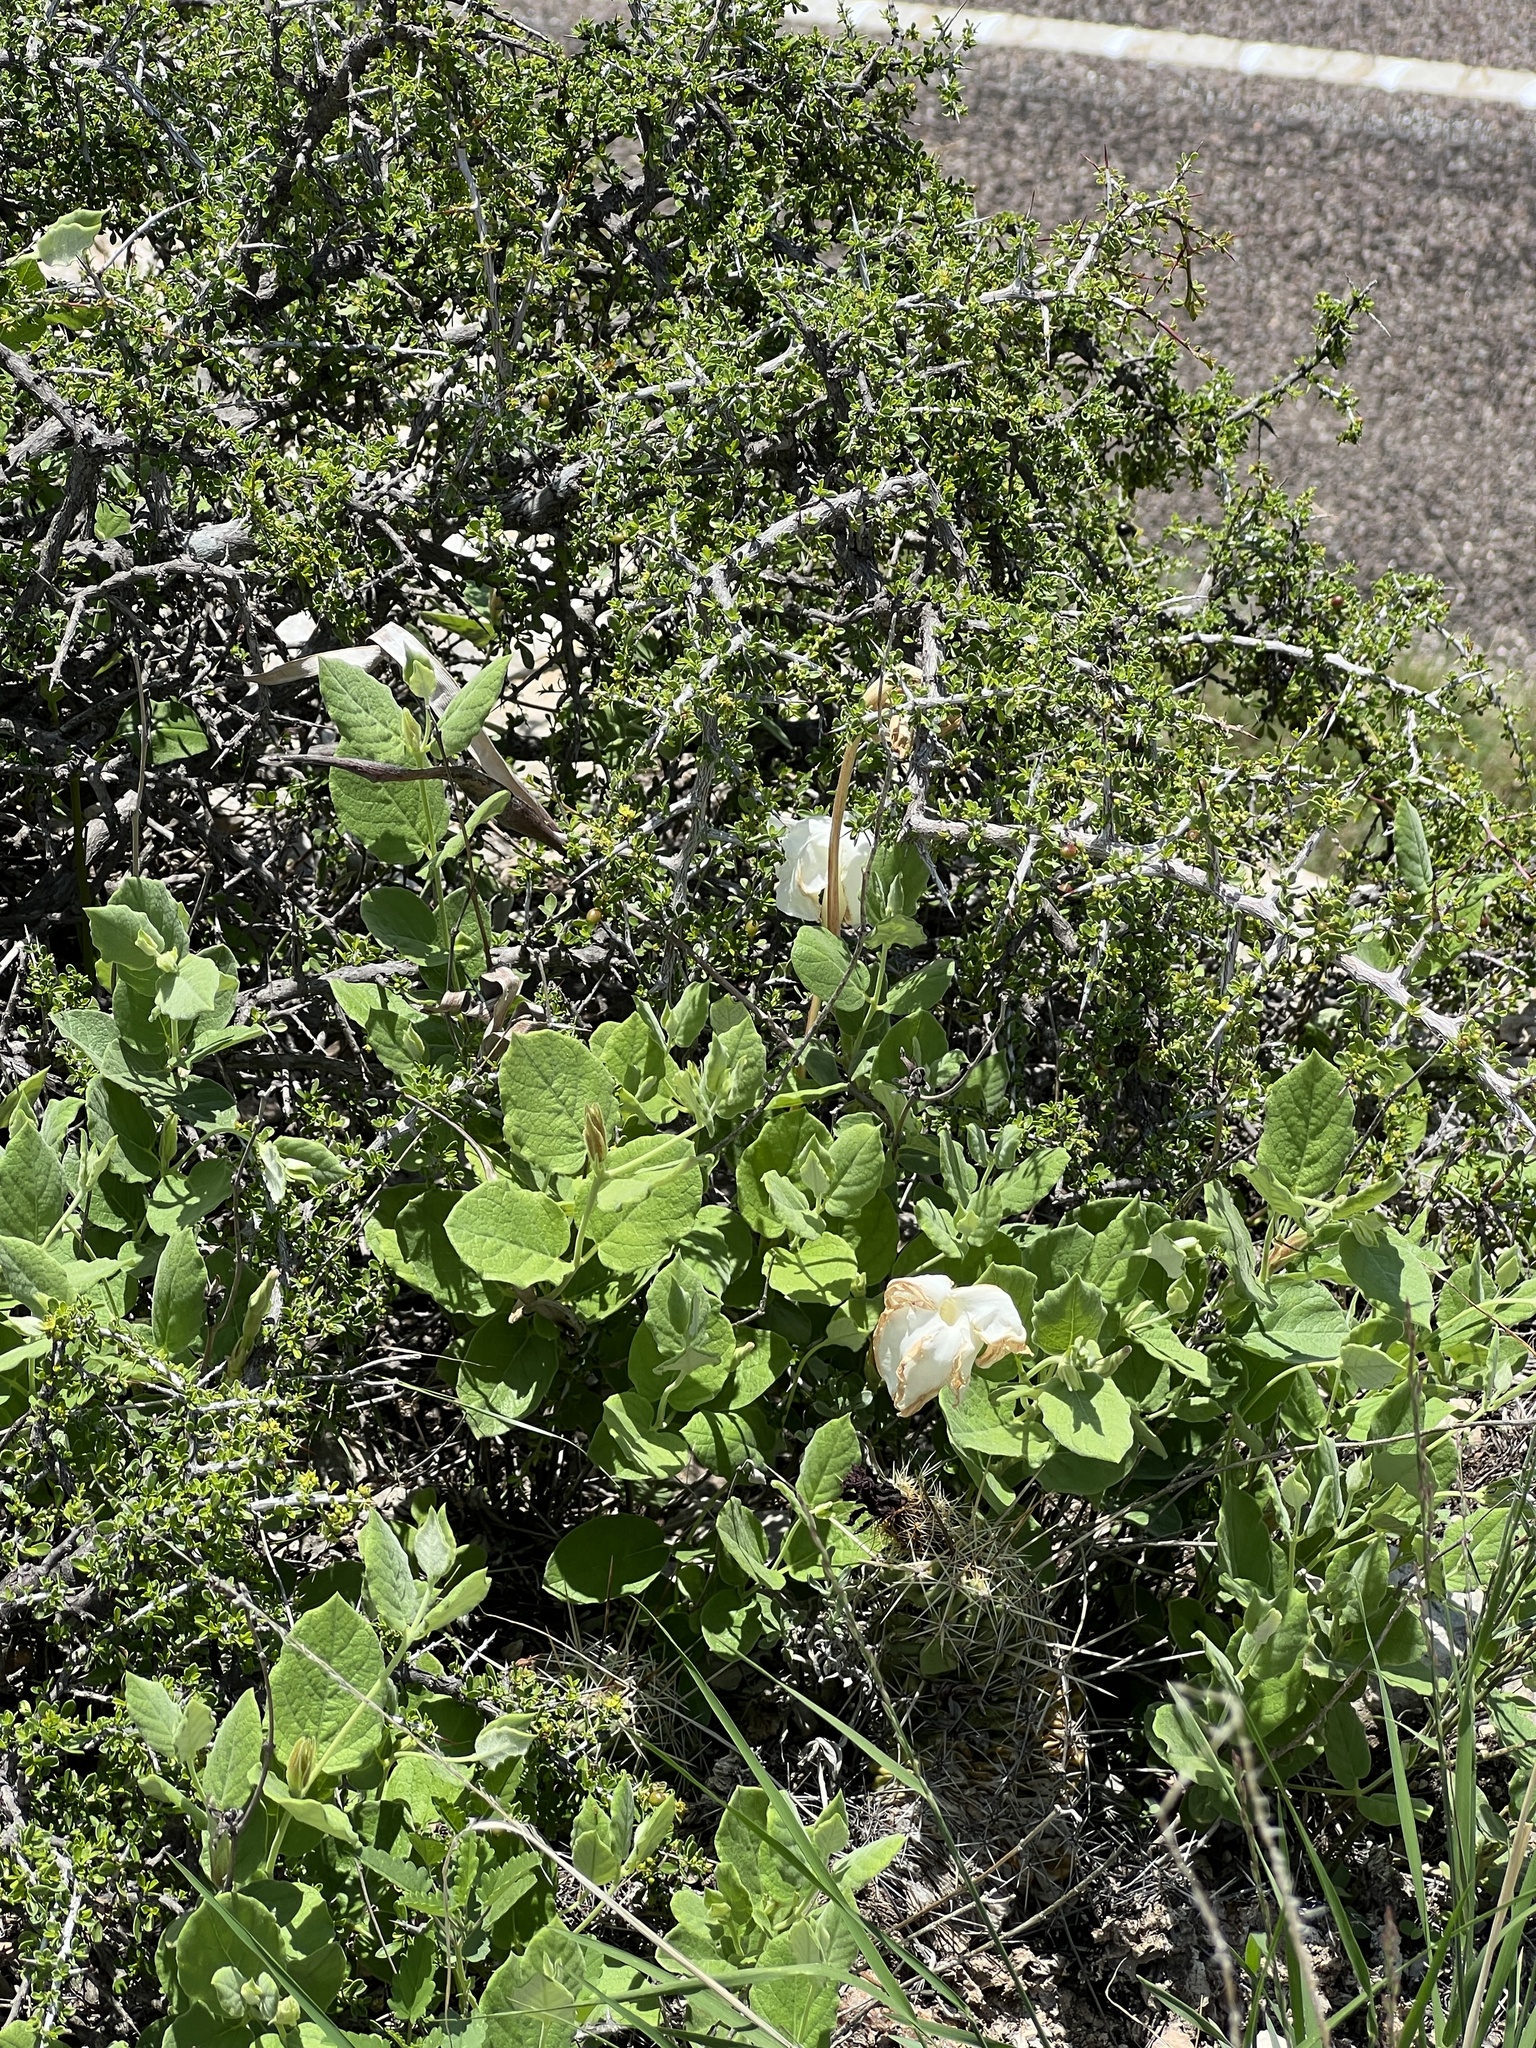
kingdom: Plantae
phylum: Tracheophyta
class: Magnoliopsida
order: Gentianales
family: Apocynaceae
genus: Mandevilla
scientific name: Mandevilla macrosiphon
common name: Plateau rocktrumpet
